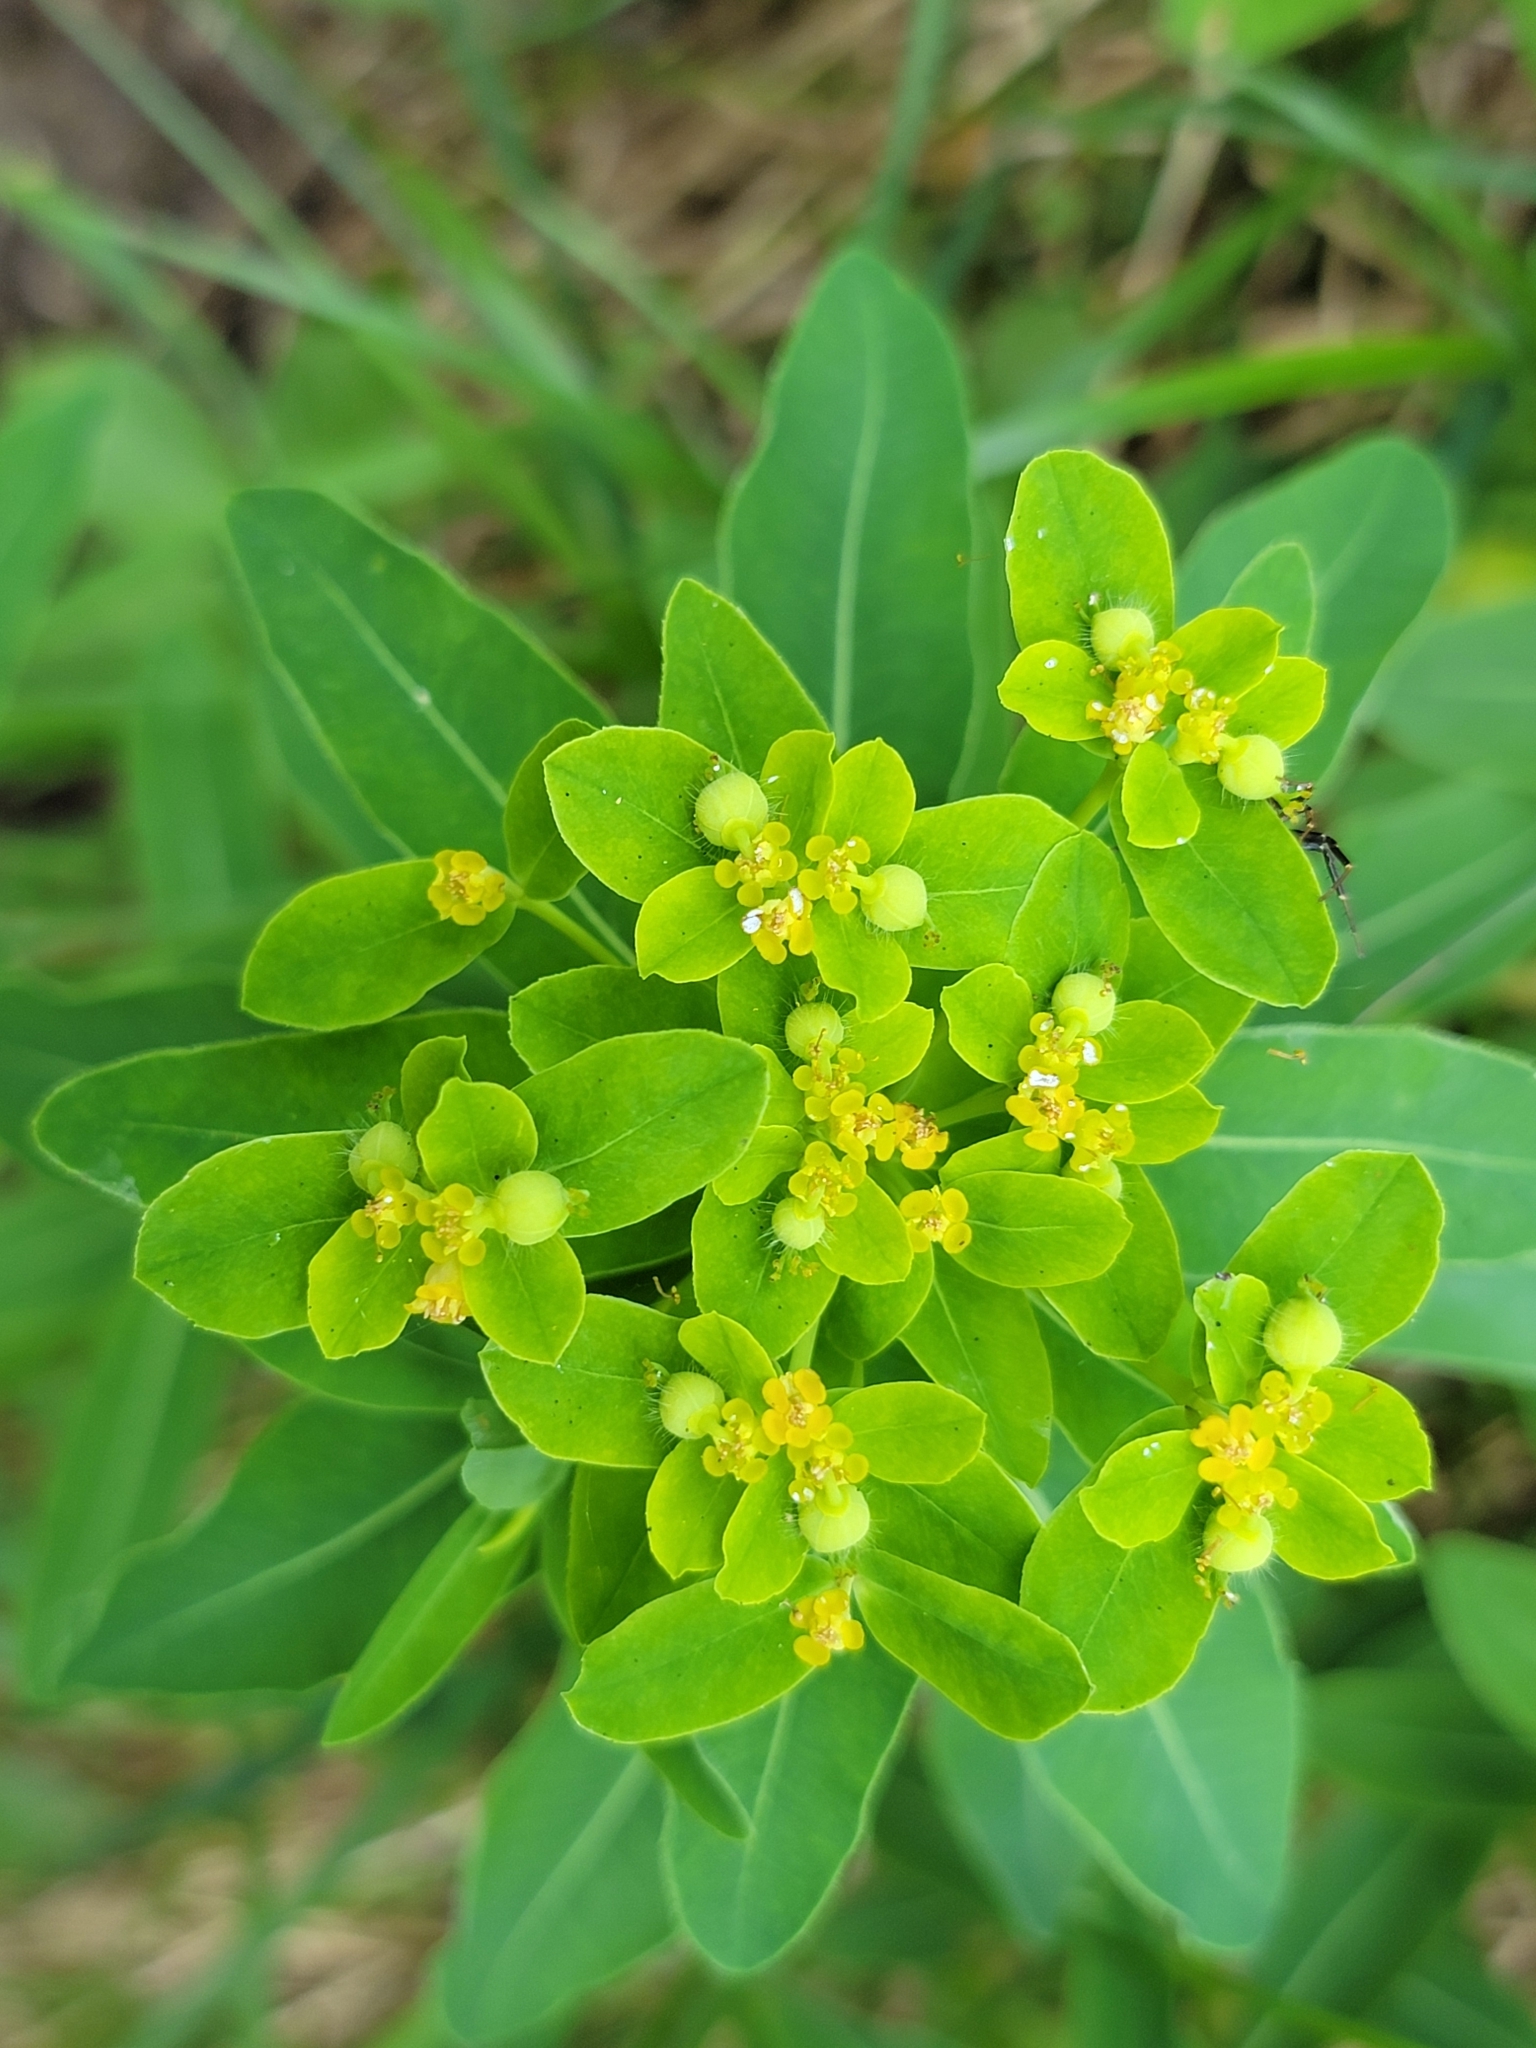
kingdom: Plantae
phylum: Tracheophyta
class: Magnoliopsida
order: Malpighiales
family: Euphorbiaceae
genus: Euphorbia
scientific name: Euphorbia austriaca
